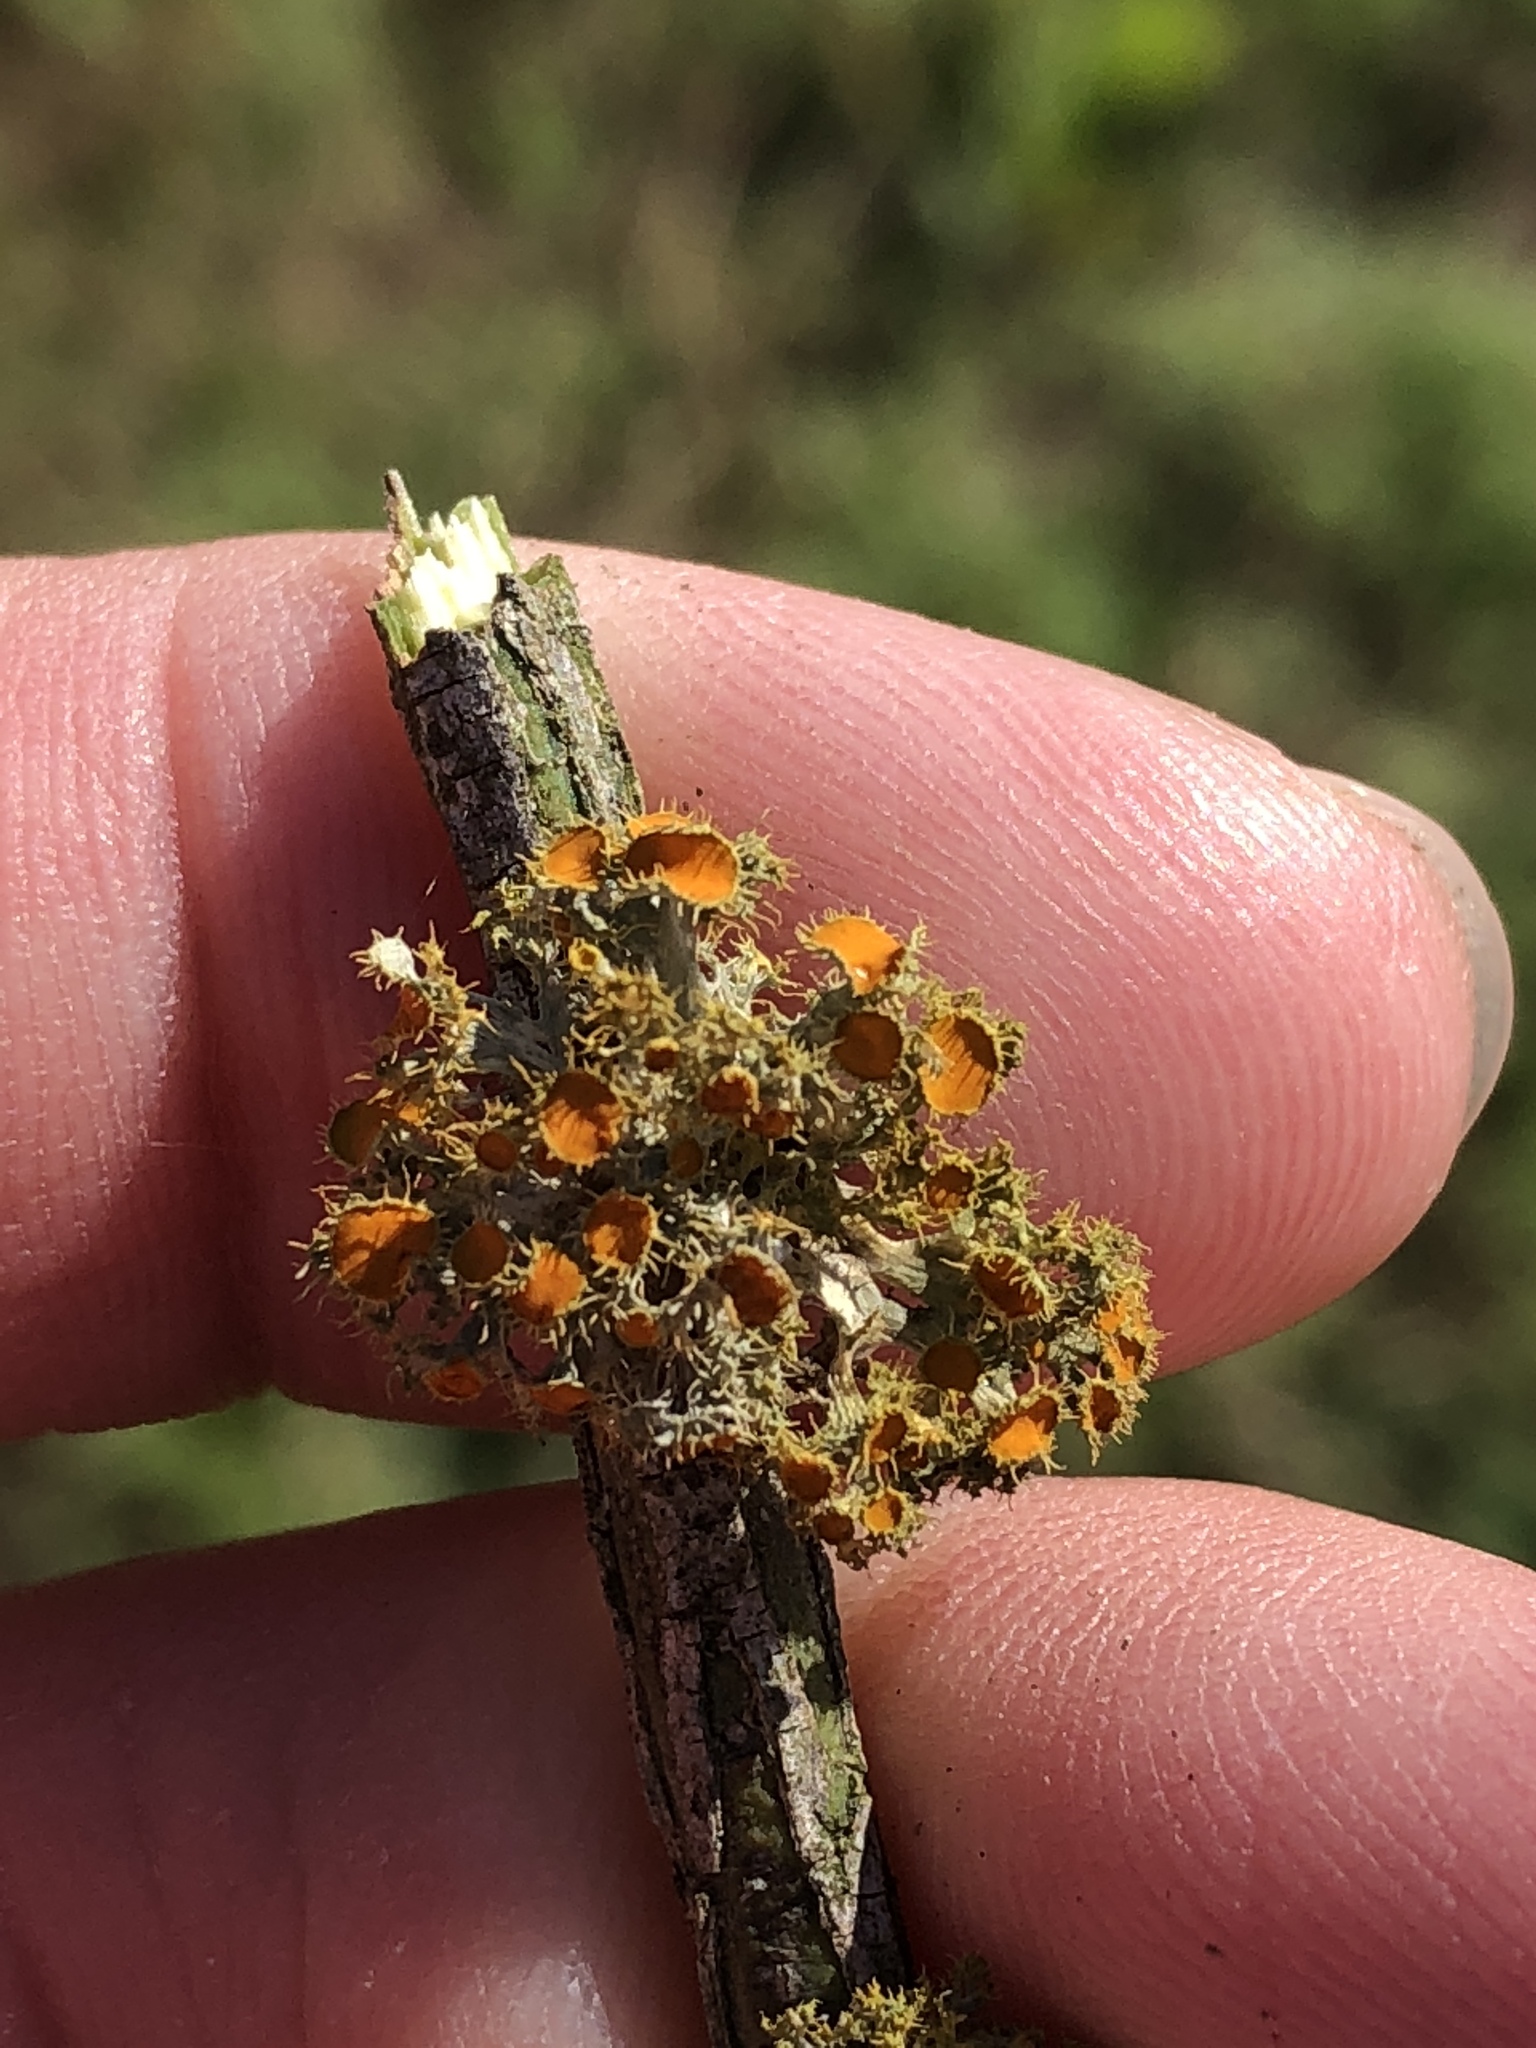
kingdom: Fungi
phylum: Ascomycota
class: Lecanoromycetes
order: Teloschistales
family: Teloschistaceae
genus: Niorma
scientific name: Niorma chrysophthalma
